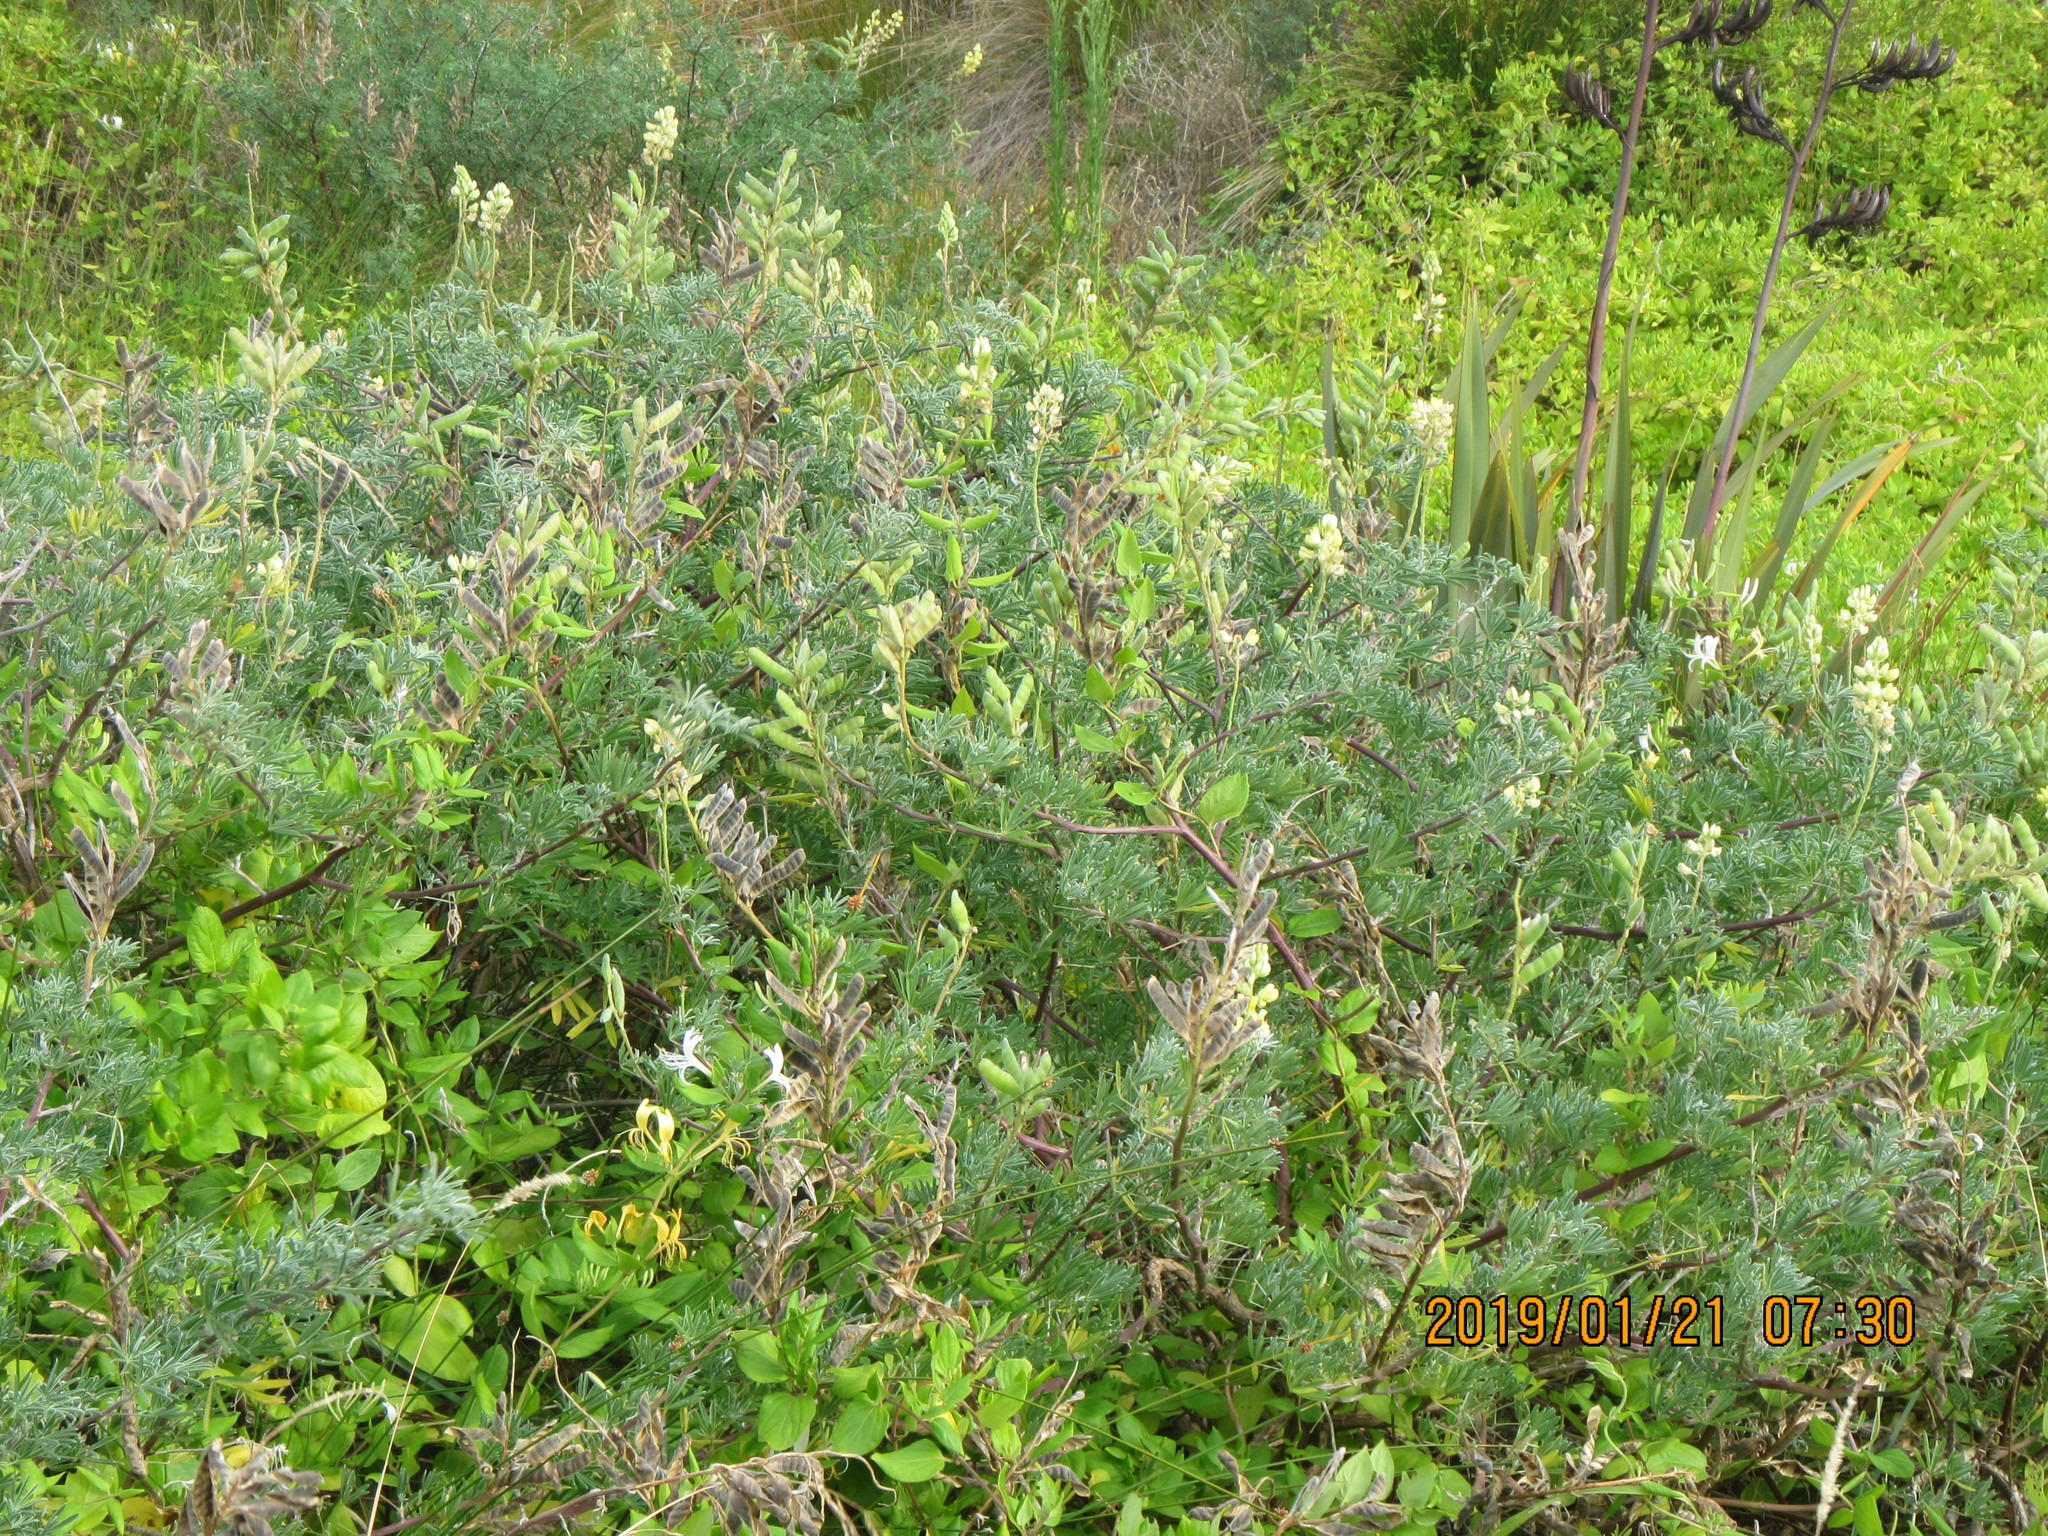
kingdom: Plantae
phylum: Tracheophyta
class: Magnoliopsida
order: Fabales
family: Fabaceae
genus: Lupinus
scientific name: Lupinus arboreus
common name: Yellow bush lupine
